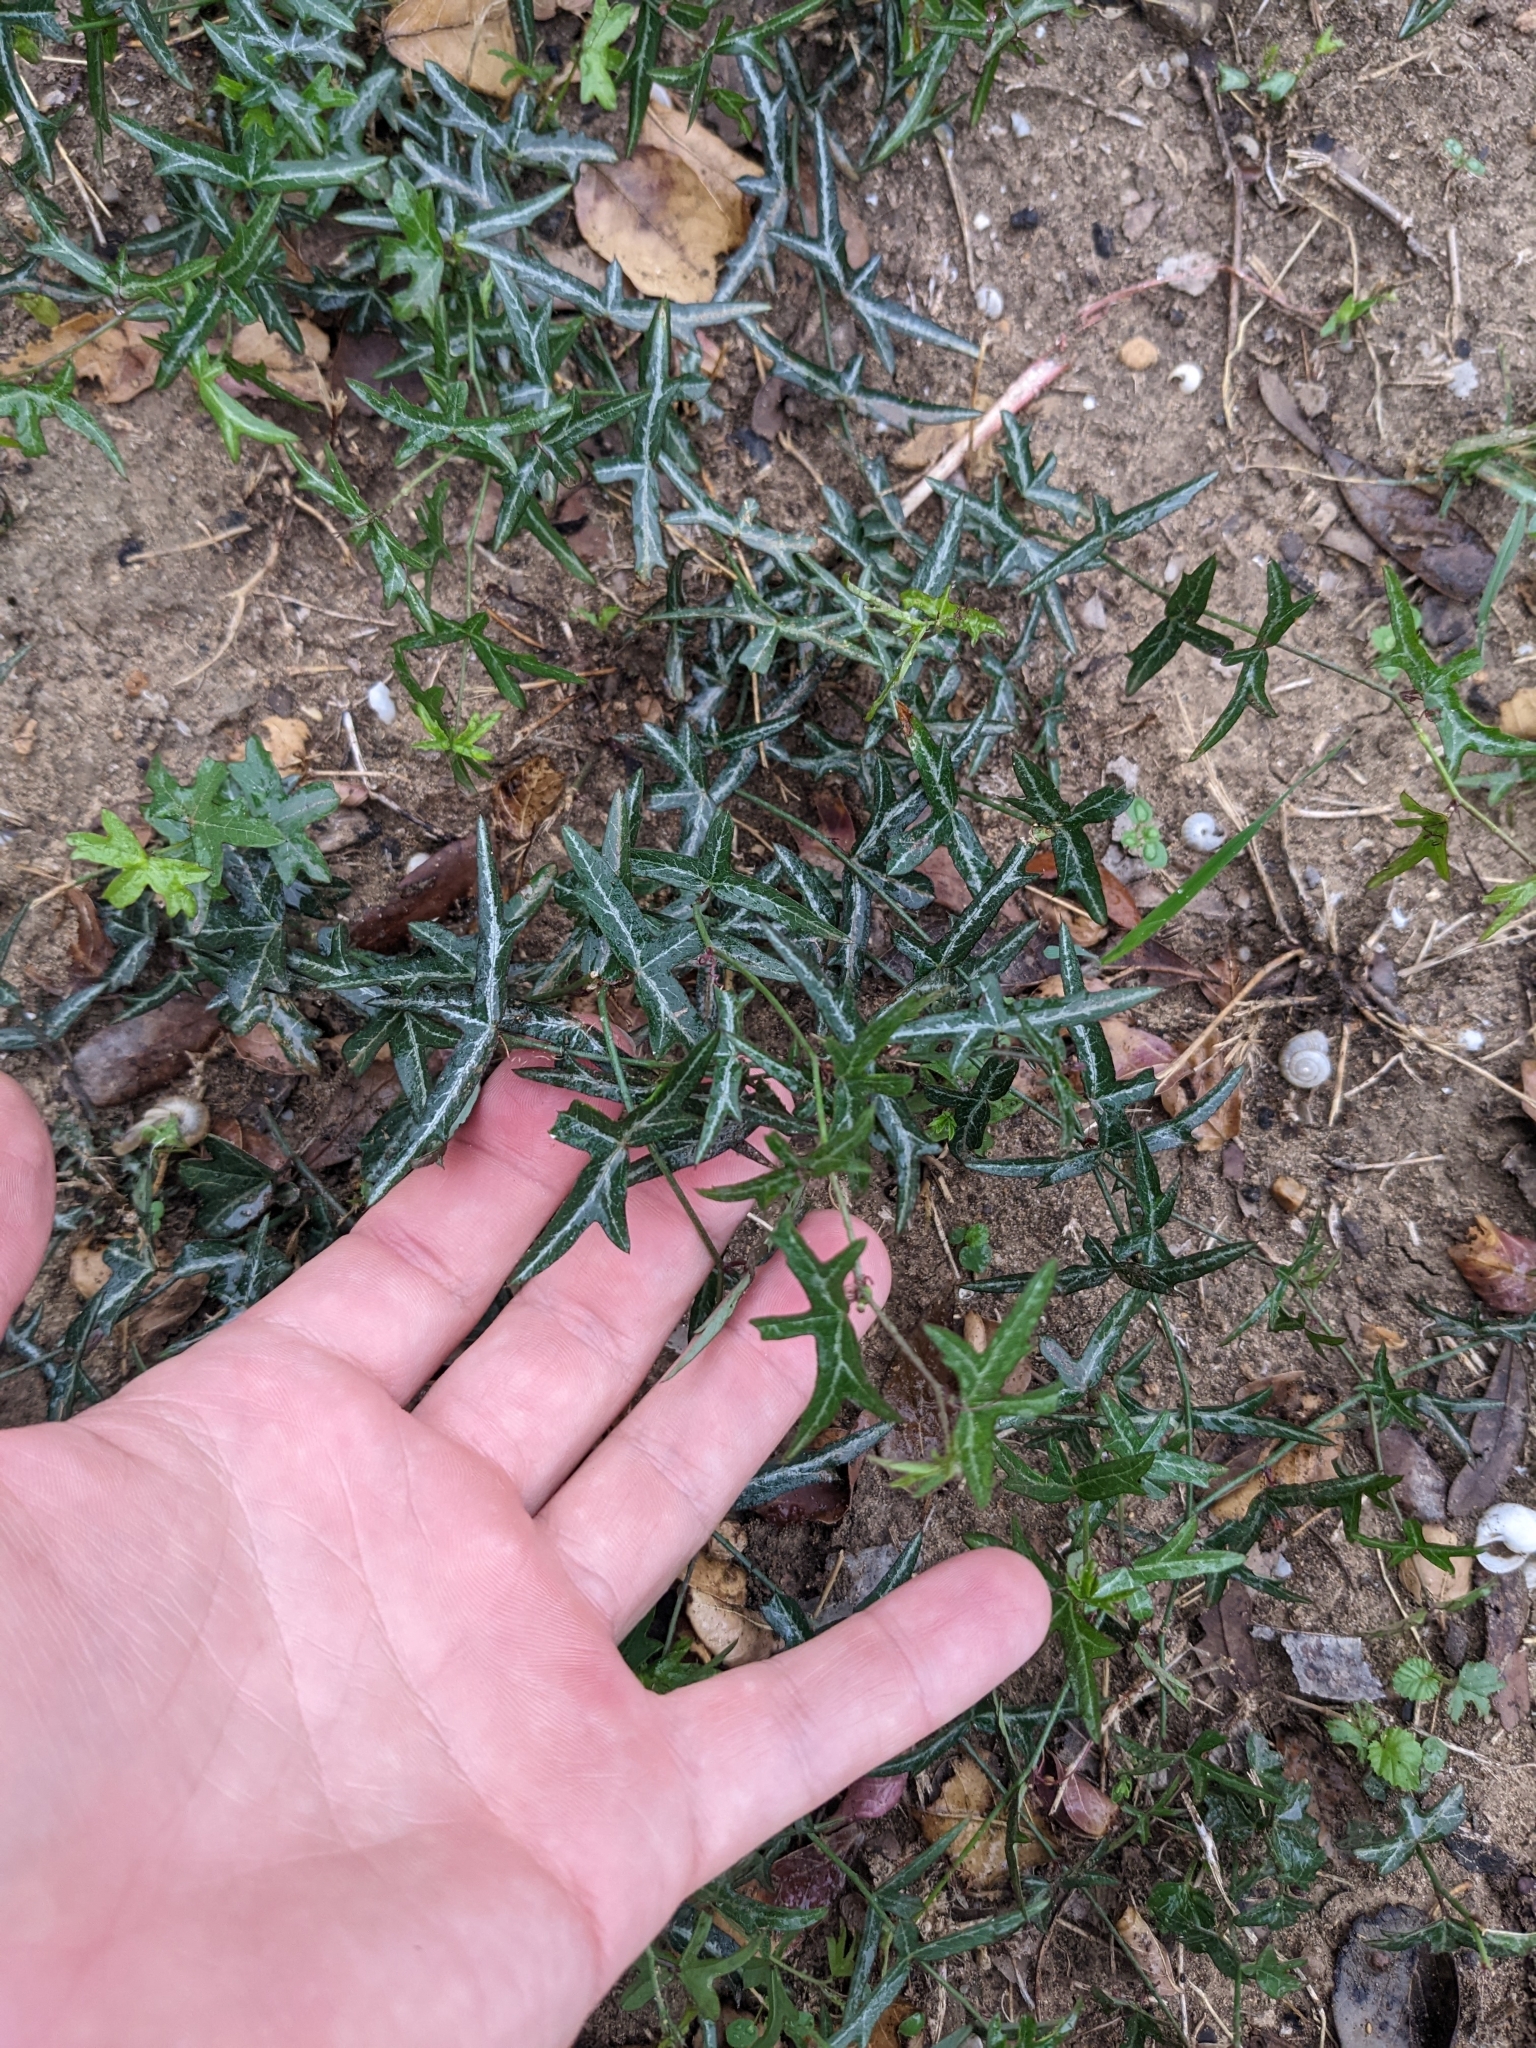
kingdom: Plantae
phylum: Tracheophyta
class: Magnoliopsida
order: Malpighiales
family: Passifloraceae
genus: Passiflora
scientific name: Passiflora tenuiloba
